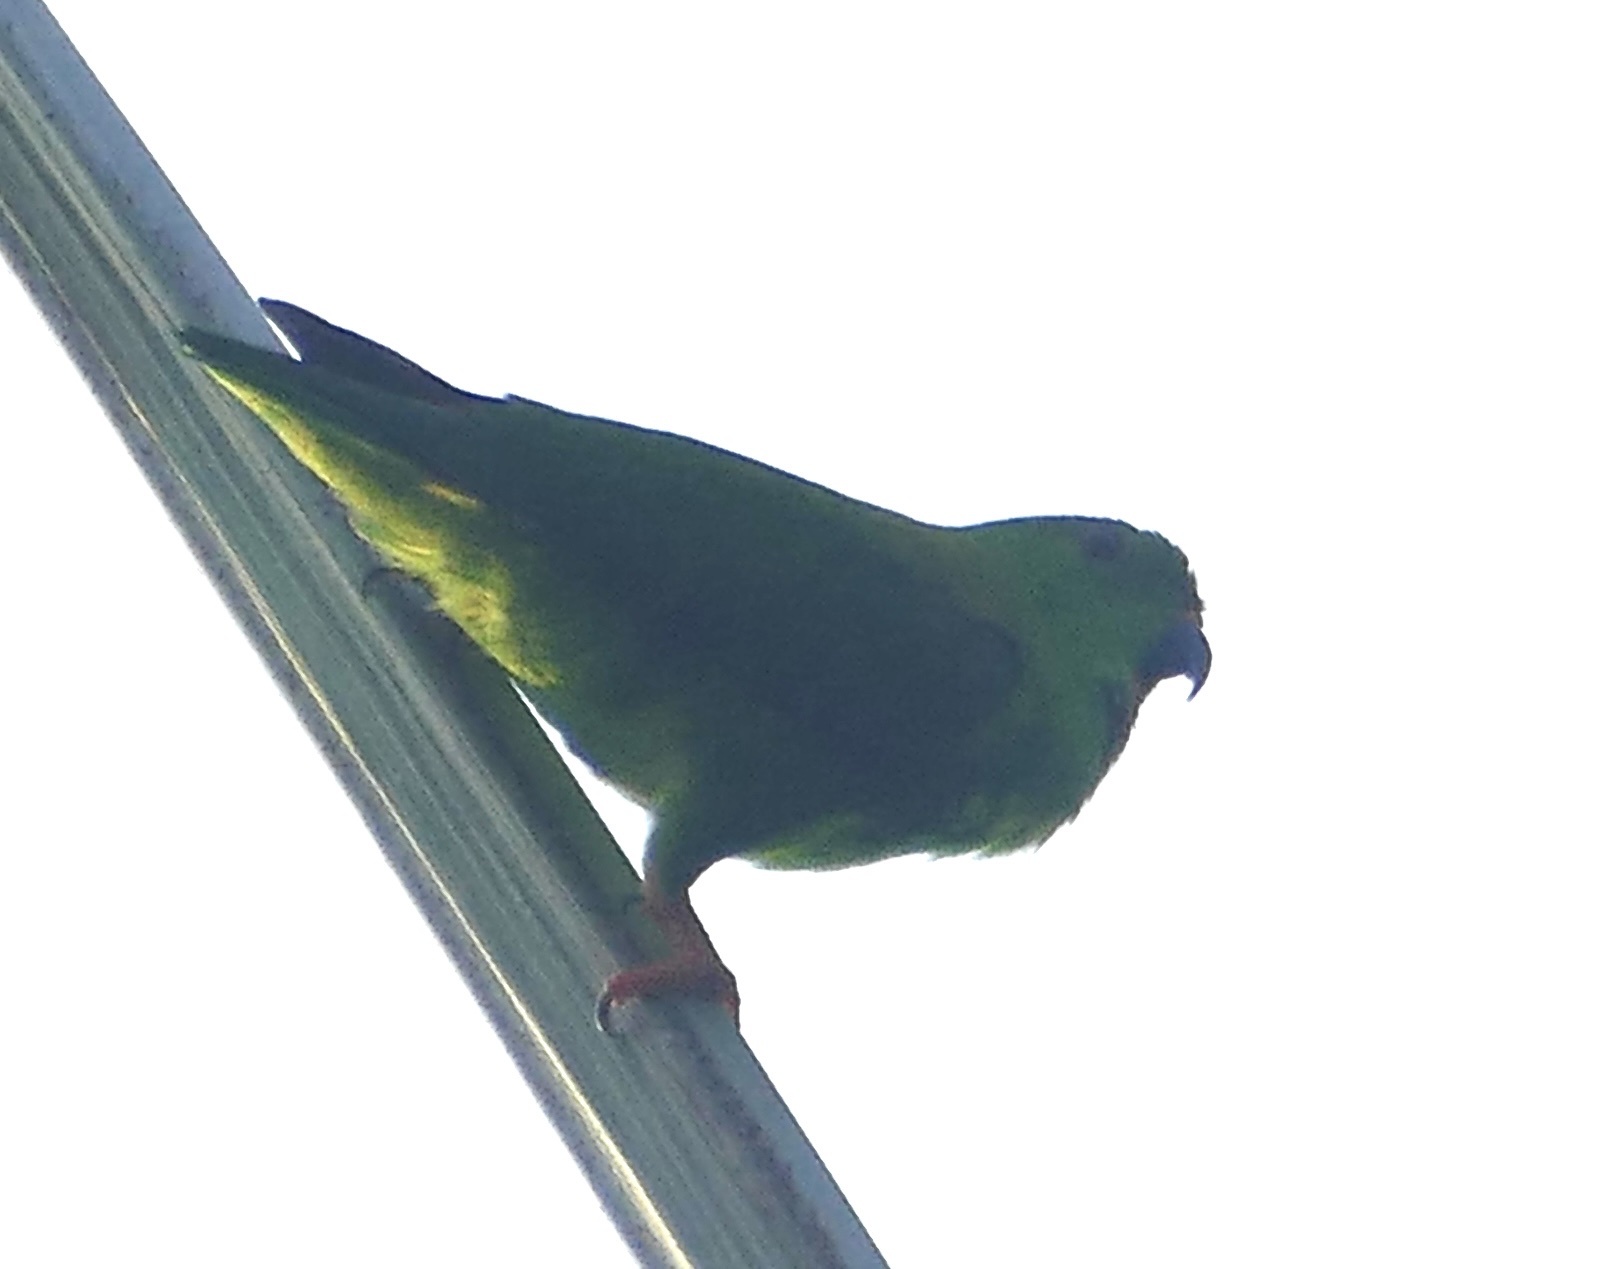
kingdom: Animalia
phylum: Chordata
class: Aves
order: Psittaciformes
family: Psittacidae
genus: Loriculus
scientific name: Loriculus stigmatus
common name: Great hanging parrot
